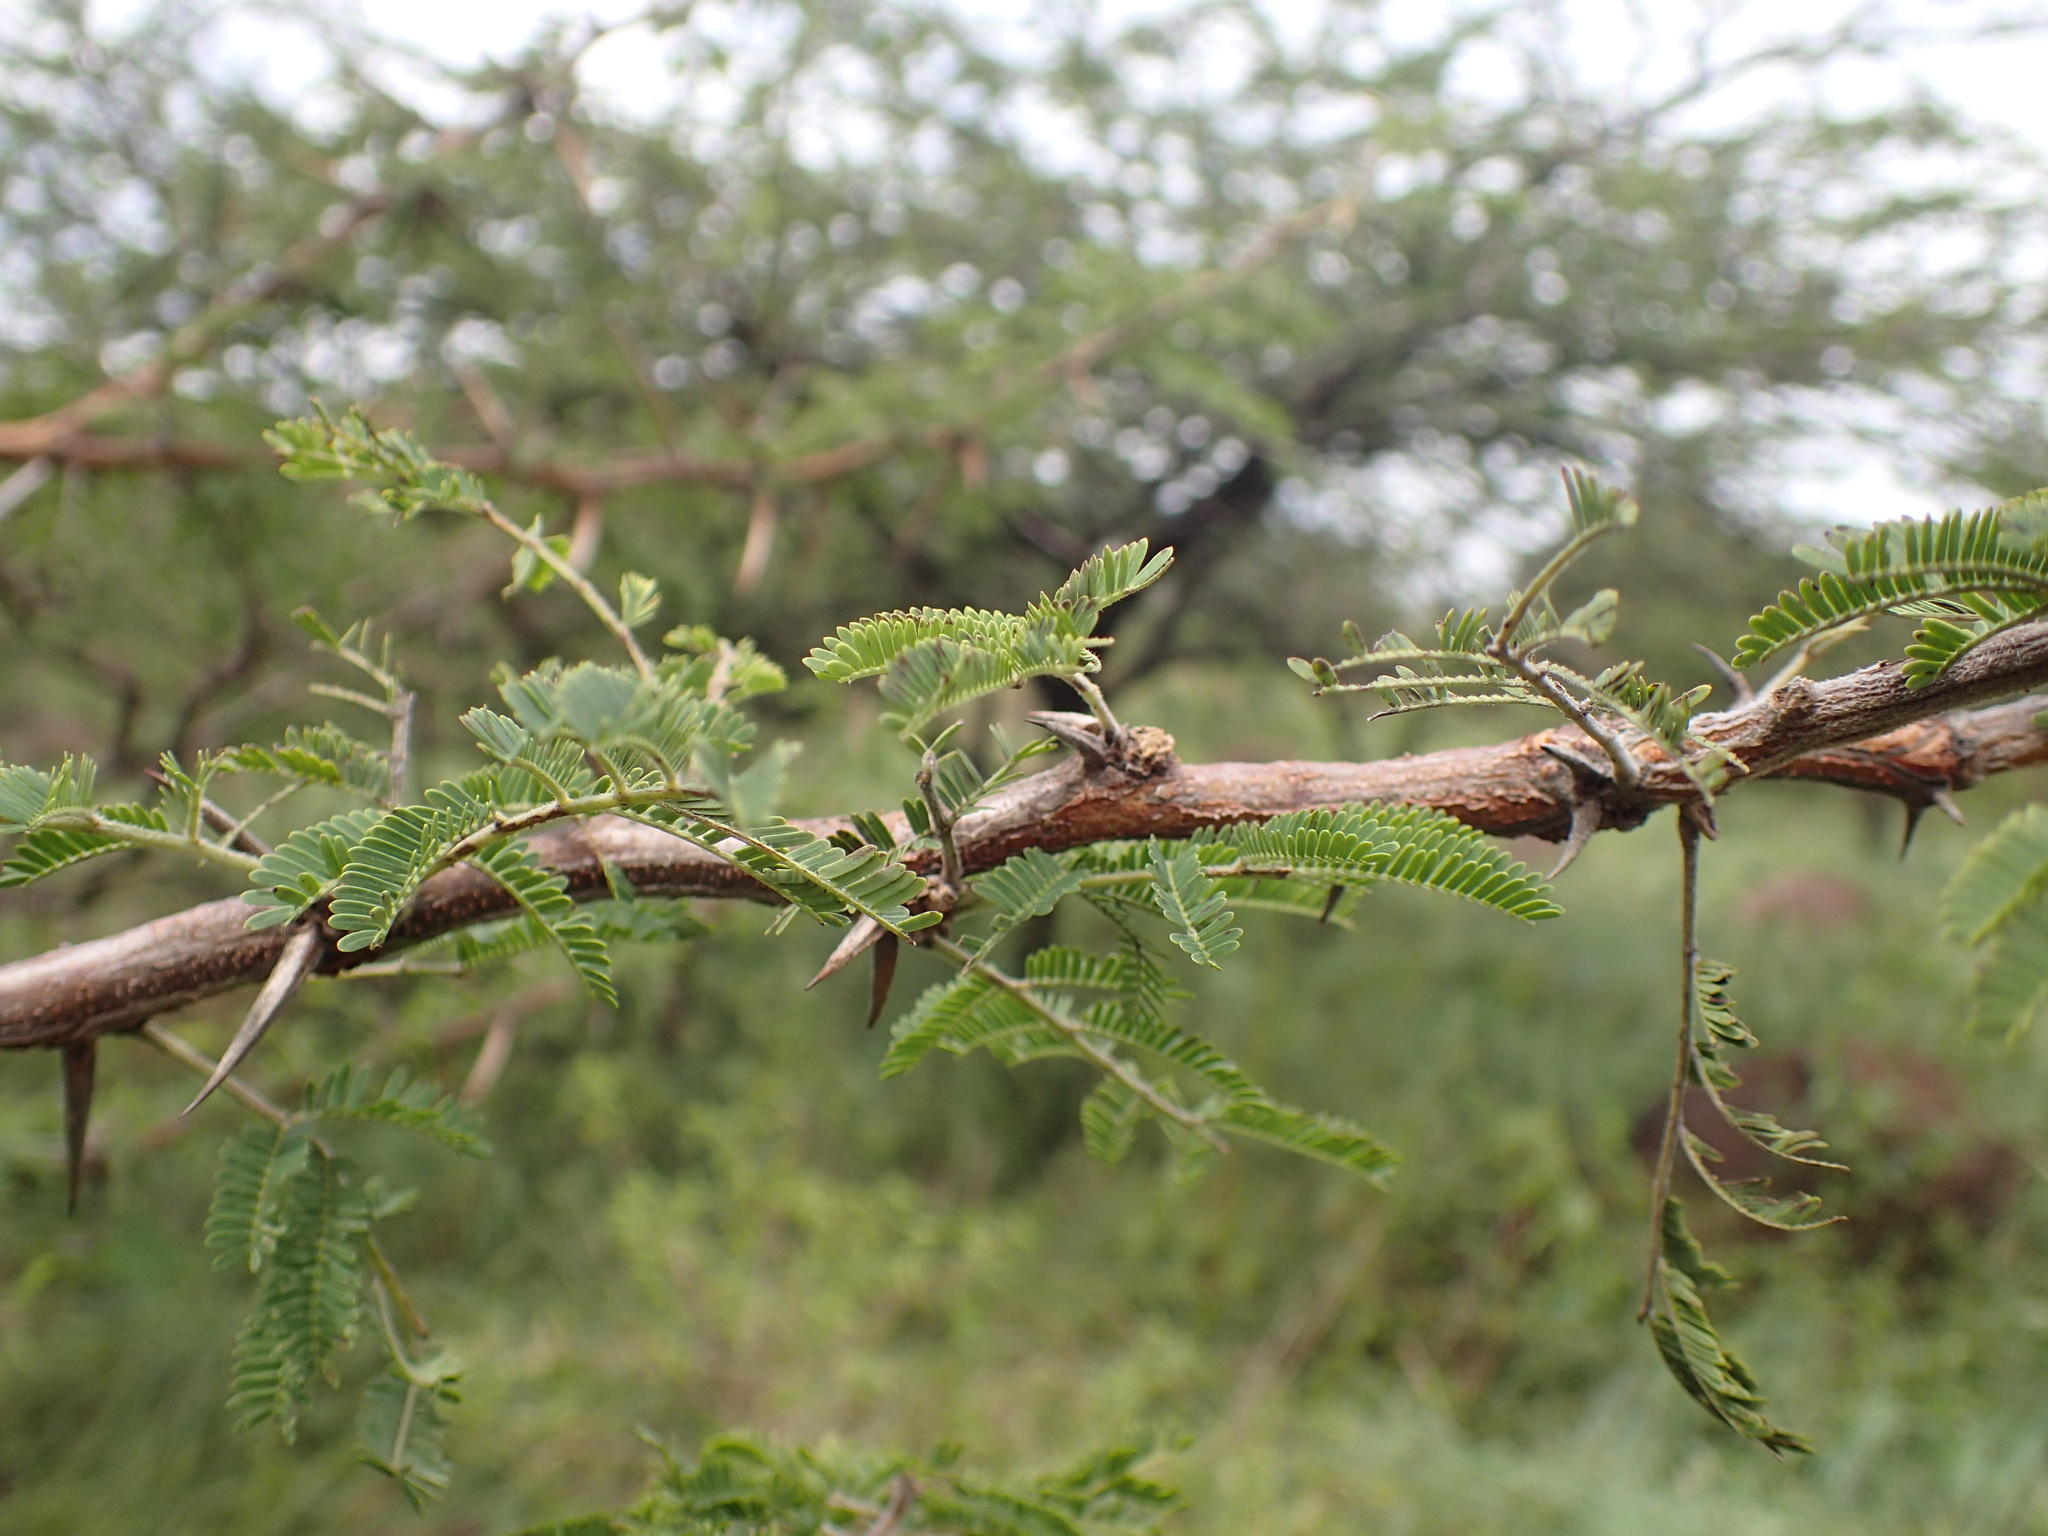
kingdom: Plantae
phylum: Tracheophyta
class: Magnoliopsida
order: Fabales
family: Fabaceae
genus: Vachellia
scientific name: Vachellia nilotica
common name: Arabic gumtree
